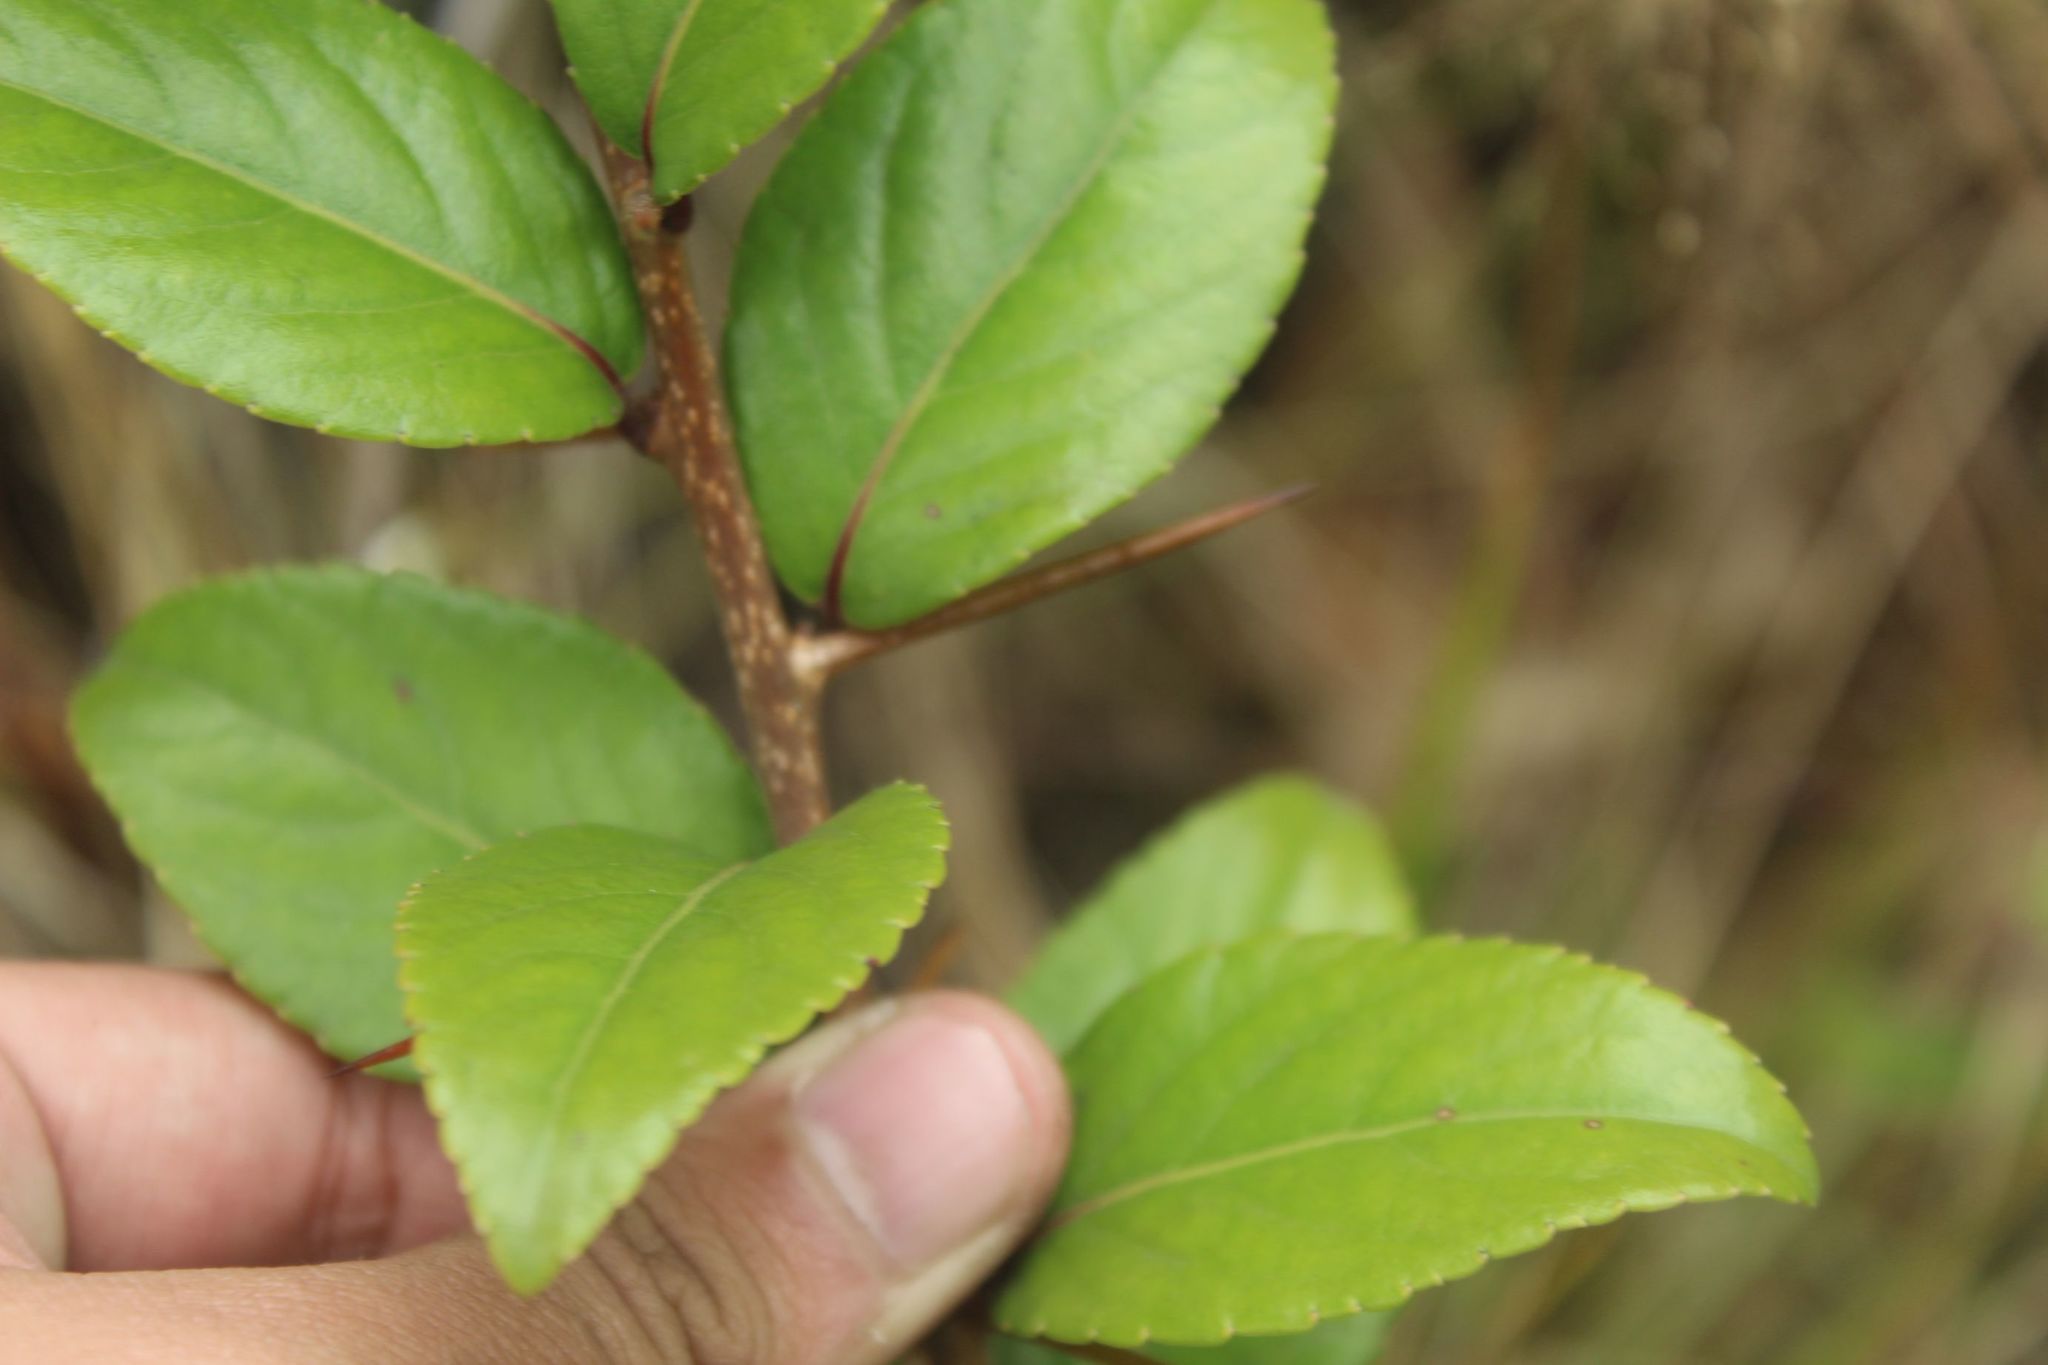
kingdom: Plantae
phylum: Tracheophyta
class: Magnoliopsida
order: Malpighiales
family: Salicaceae
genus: Xylosma
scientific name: Xylosma spiculifera
